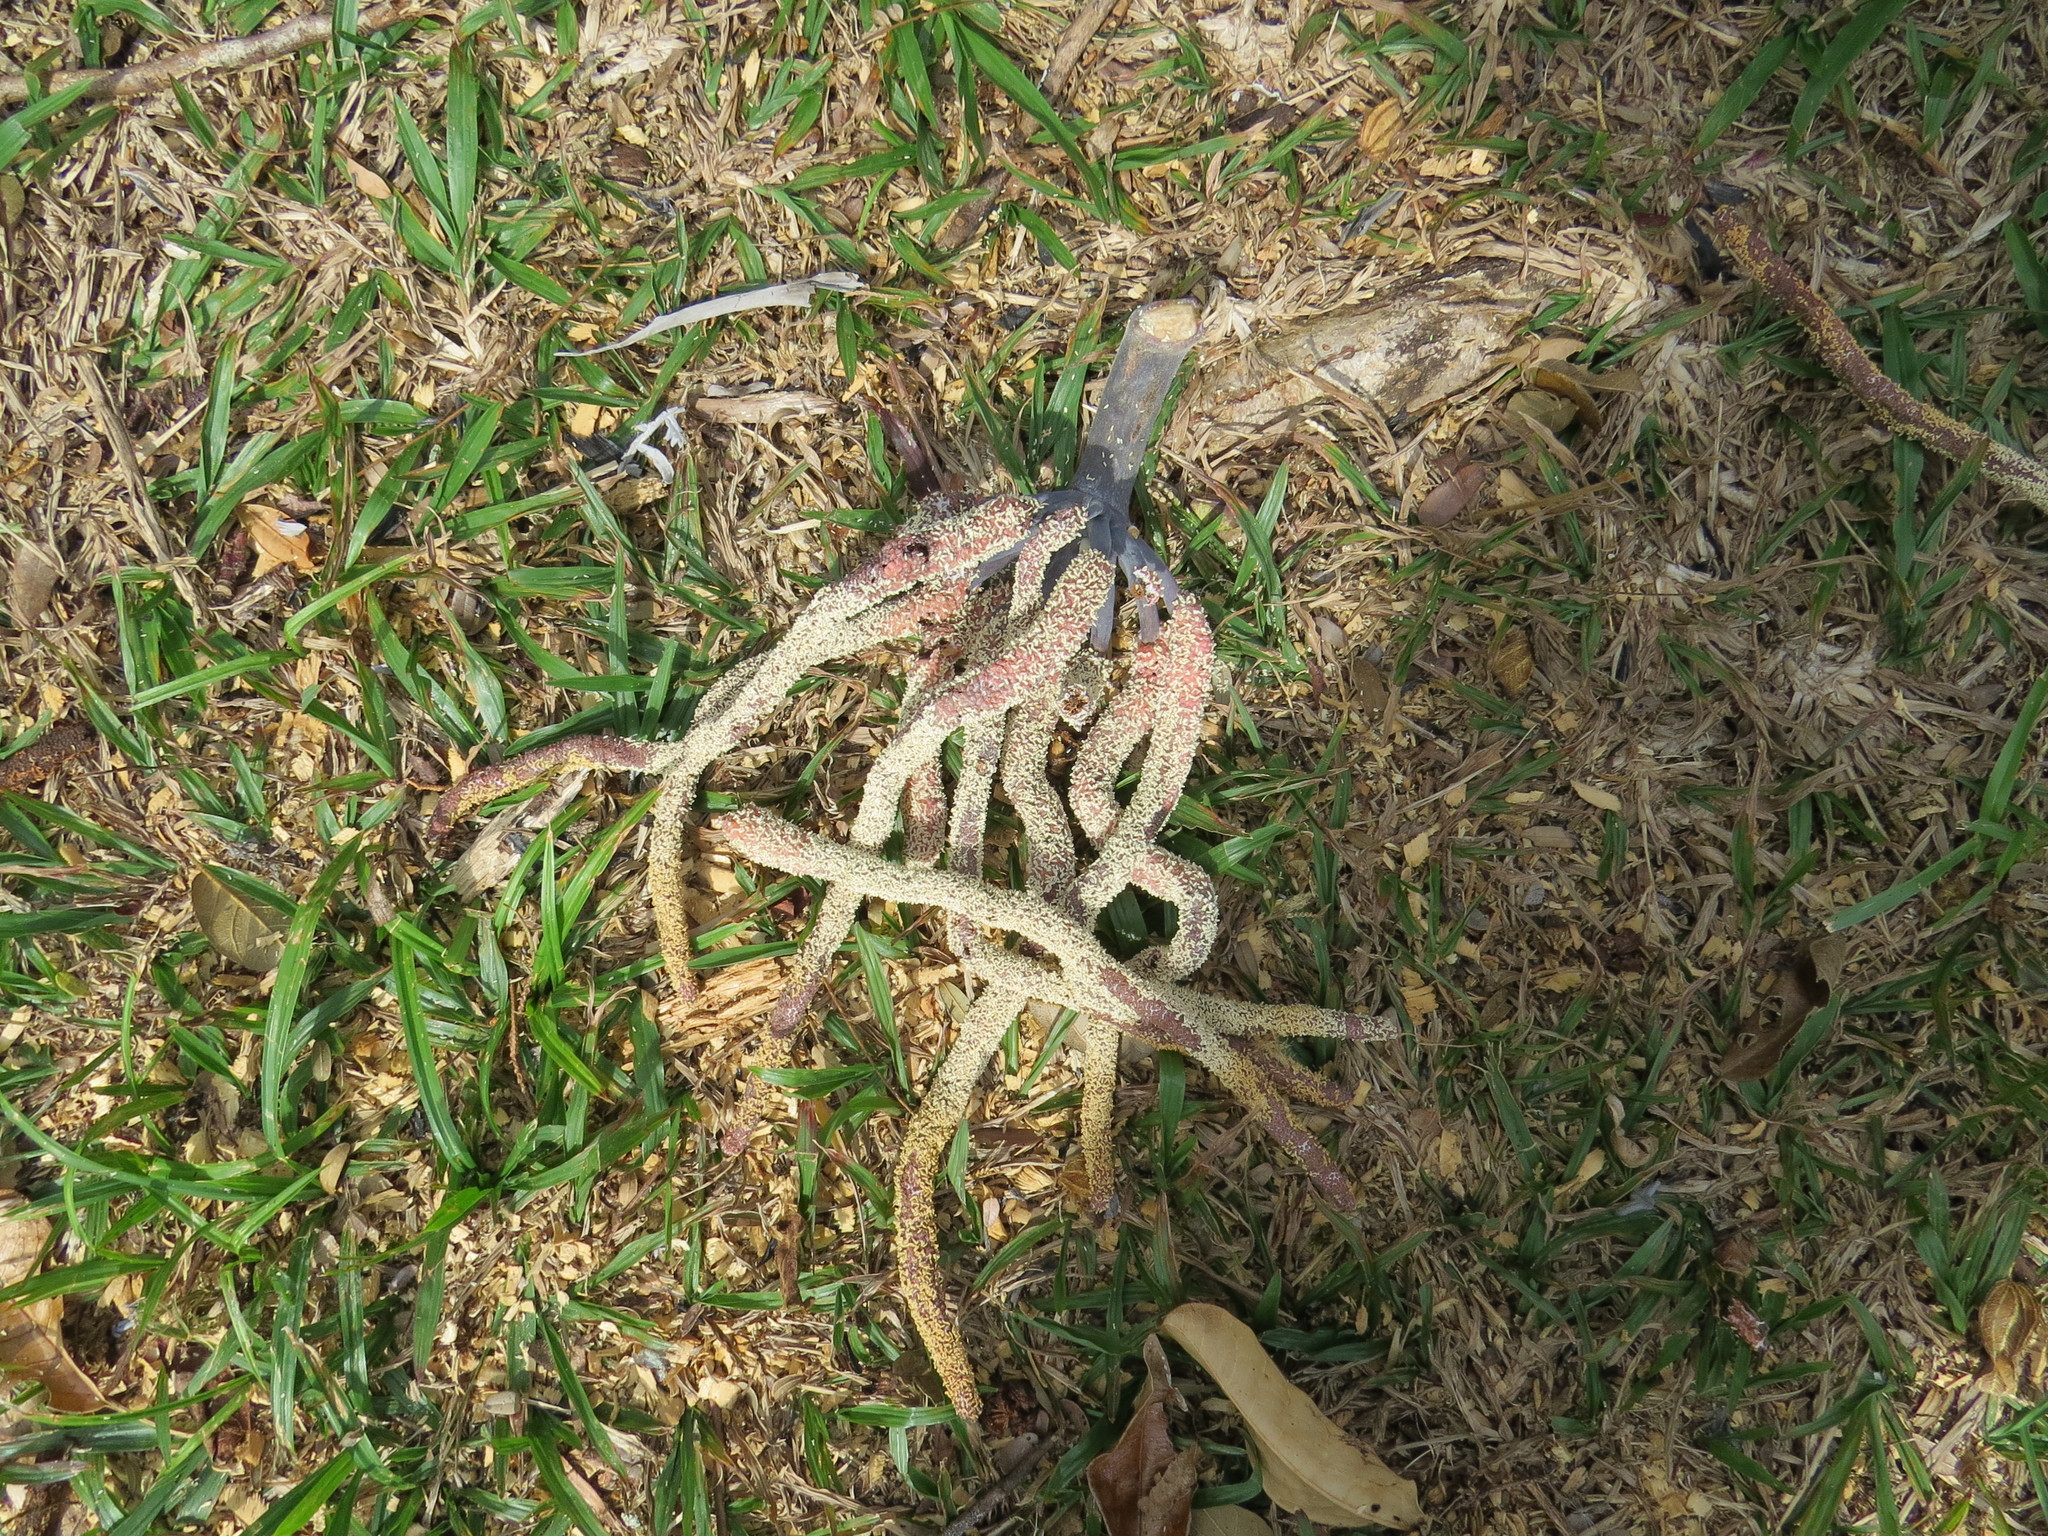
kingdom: Plantae
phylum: Tracheophyta
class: Magnoliopsida
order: Rosales
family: Urticaceae
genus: Cecropia
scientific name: Cecropia glaziovii
